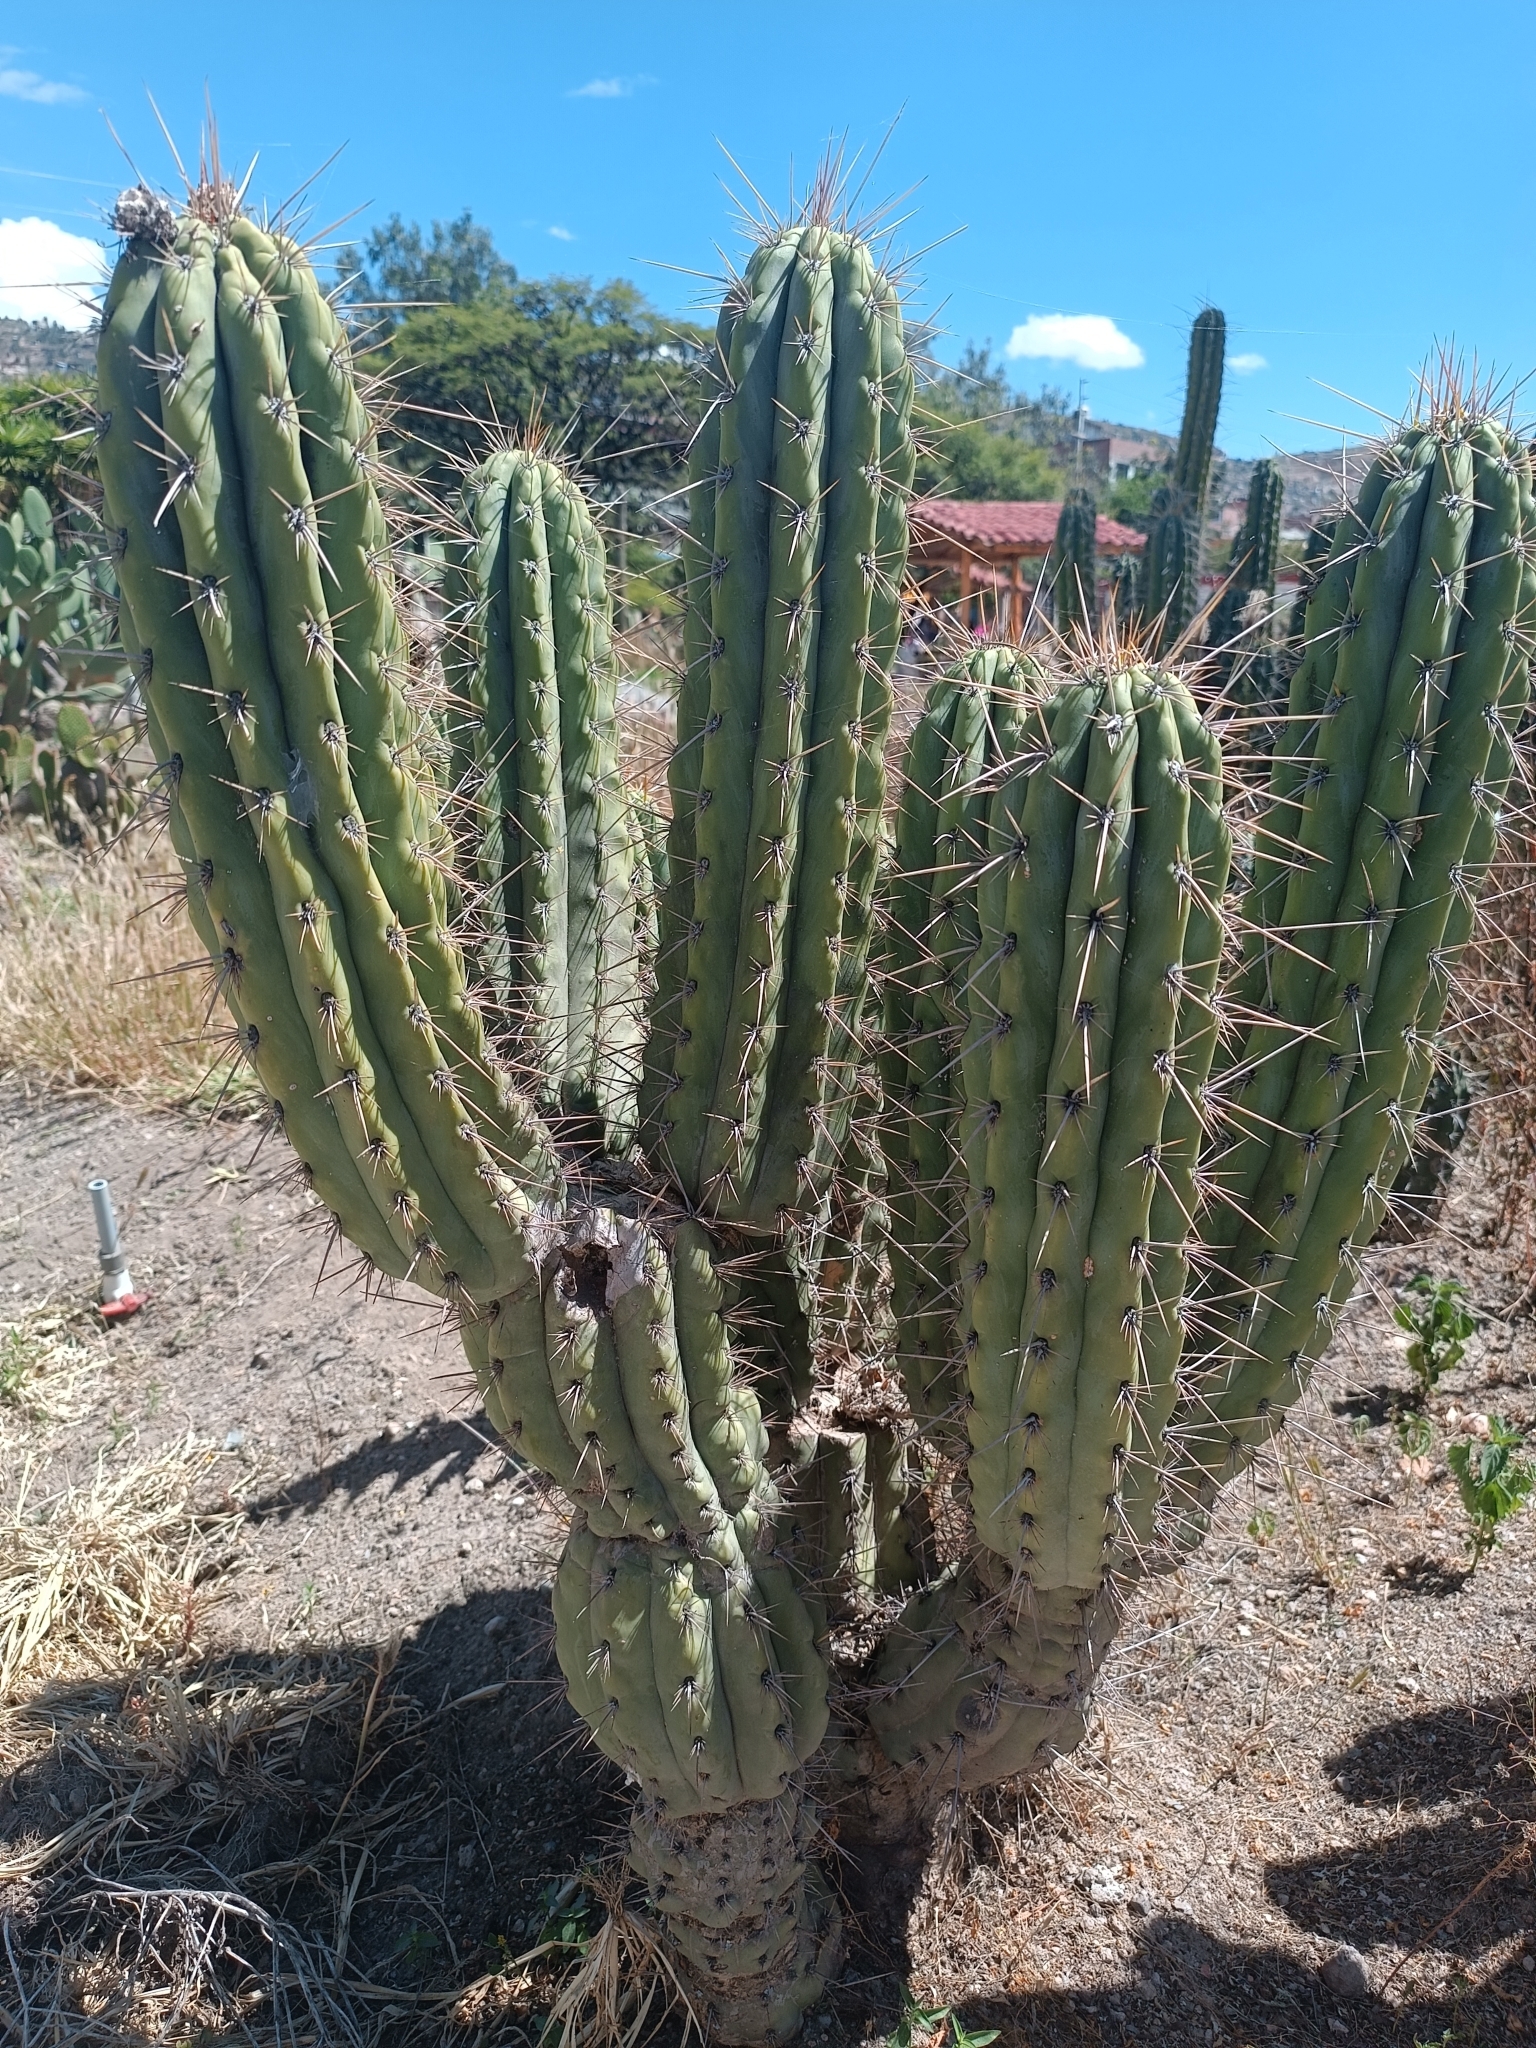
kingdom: Plantae
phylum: Tracheophyta
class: Magnoliopsida
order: Caryophyllales
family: Cactaceae
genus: Browningia
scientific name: Browningia hertlingiana
